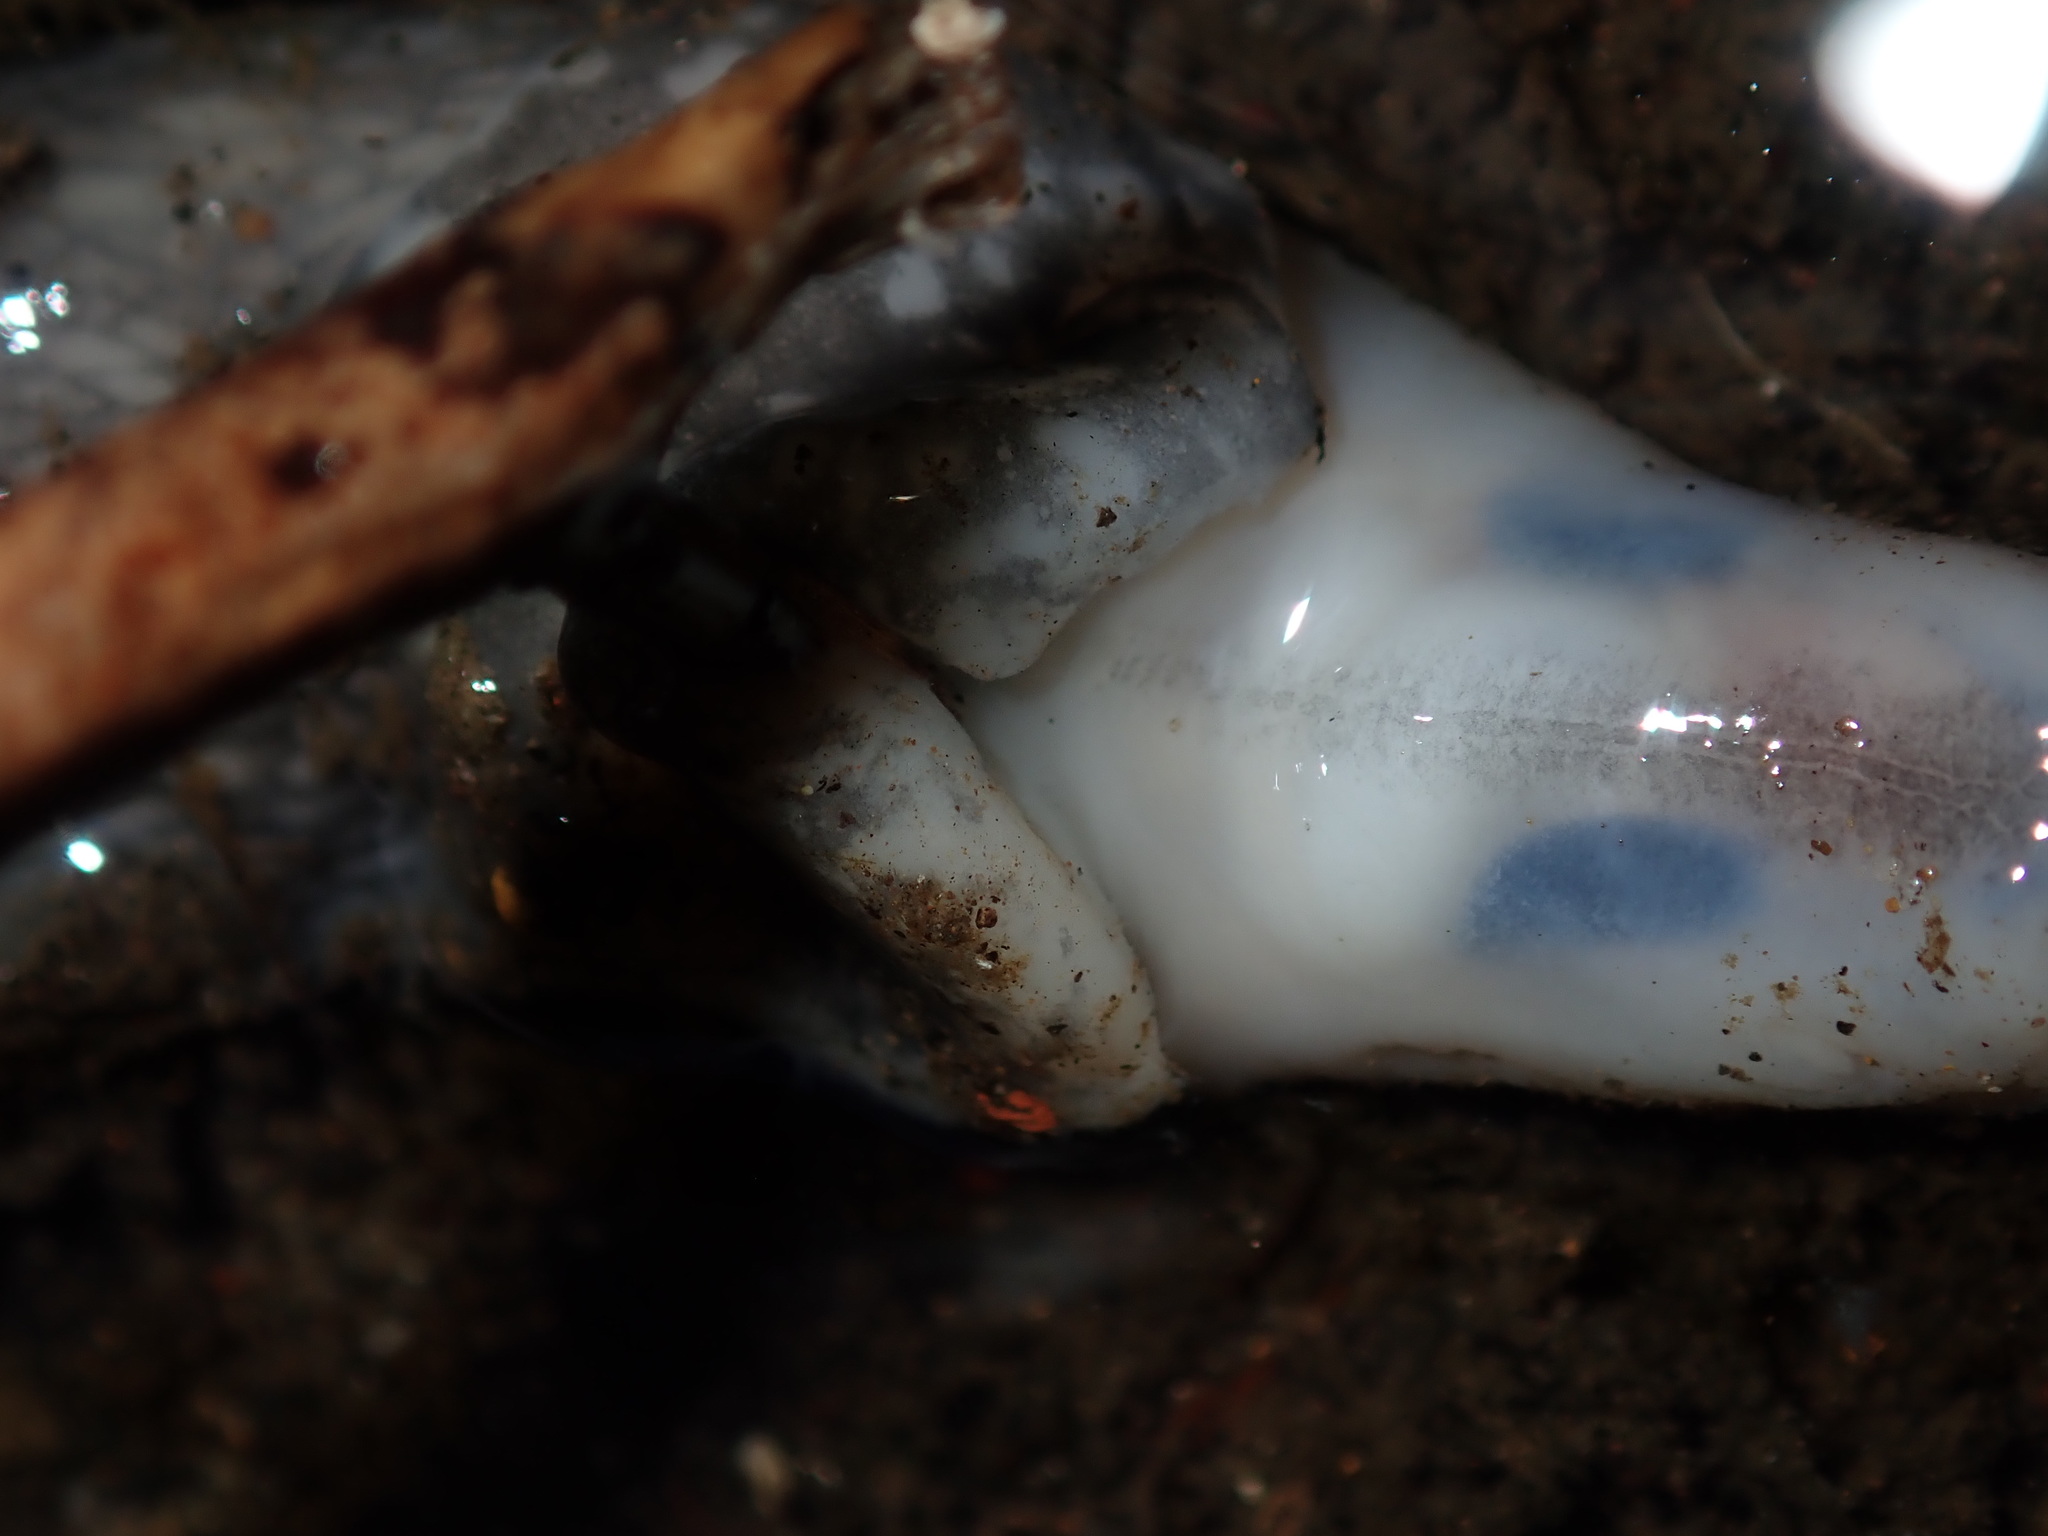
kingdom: Animalia
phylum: Mollusca
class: Gastropoda
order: Stylommatophora
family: Limacidae
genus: Limacus
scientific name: Limacus flavus
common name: Yellow gardenslug
